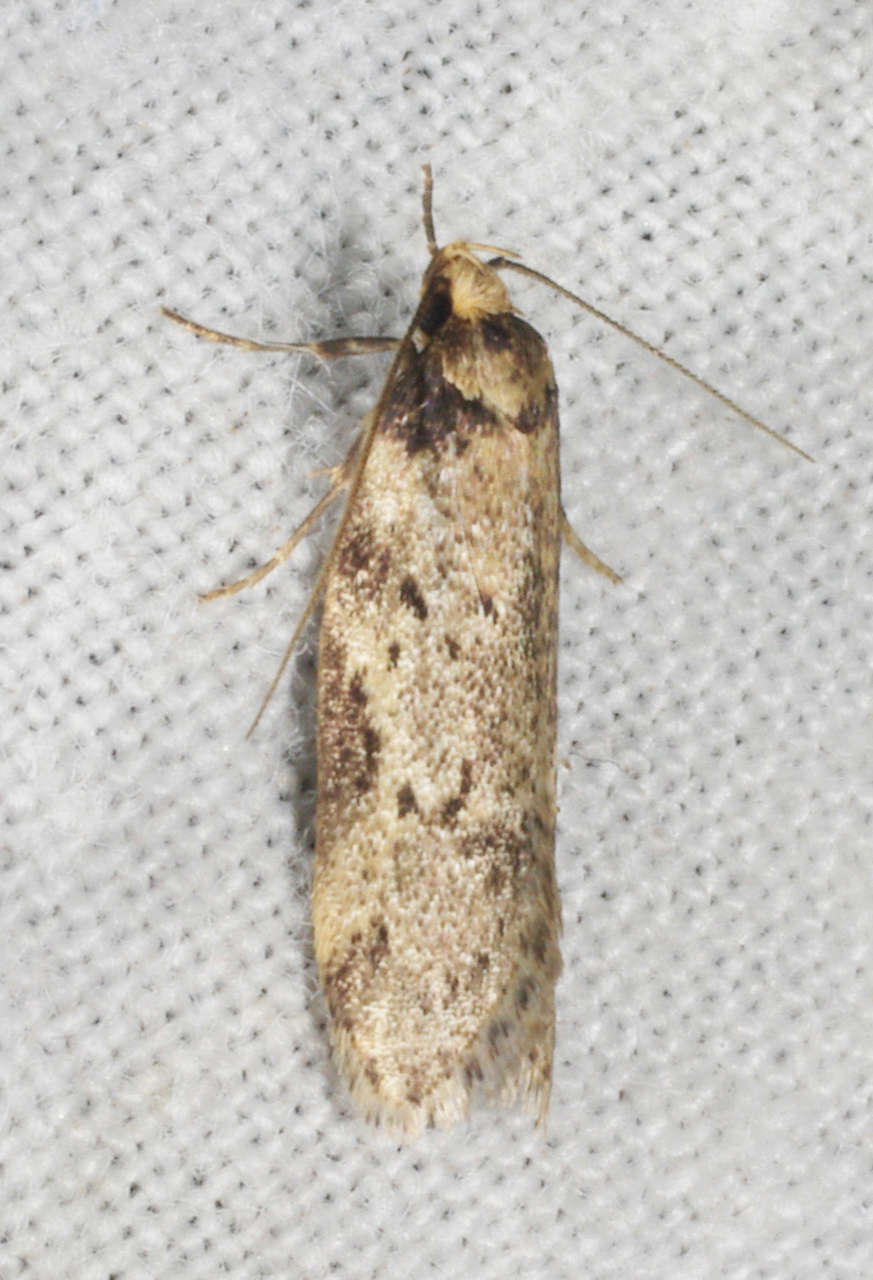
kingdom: Animalia
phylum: Arthropoda
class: Insecta
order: Lepidoptera
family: Oecophoridae
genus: Haplodyta
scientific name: Haplodyta polybotrya
